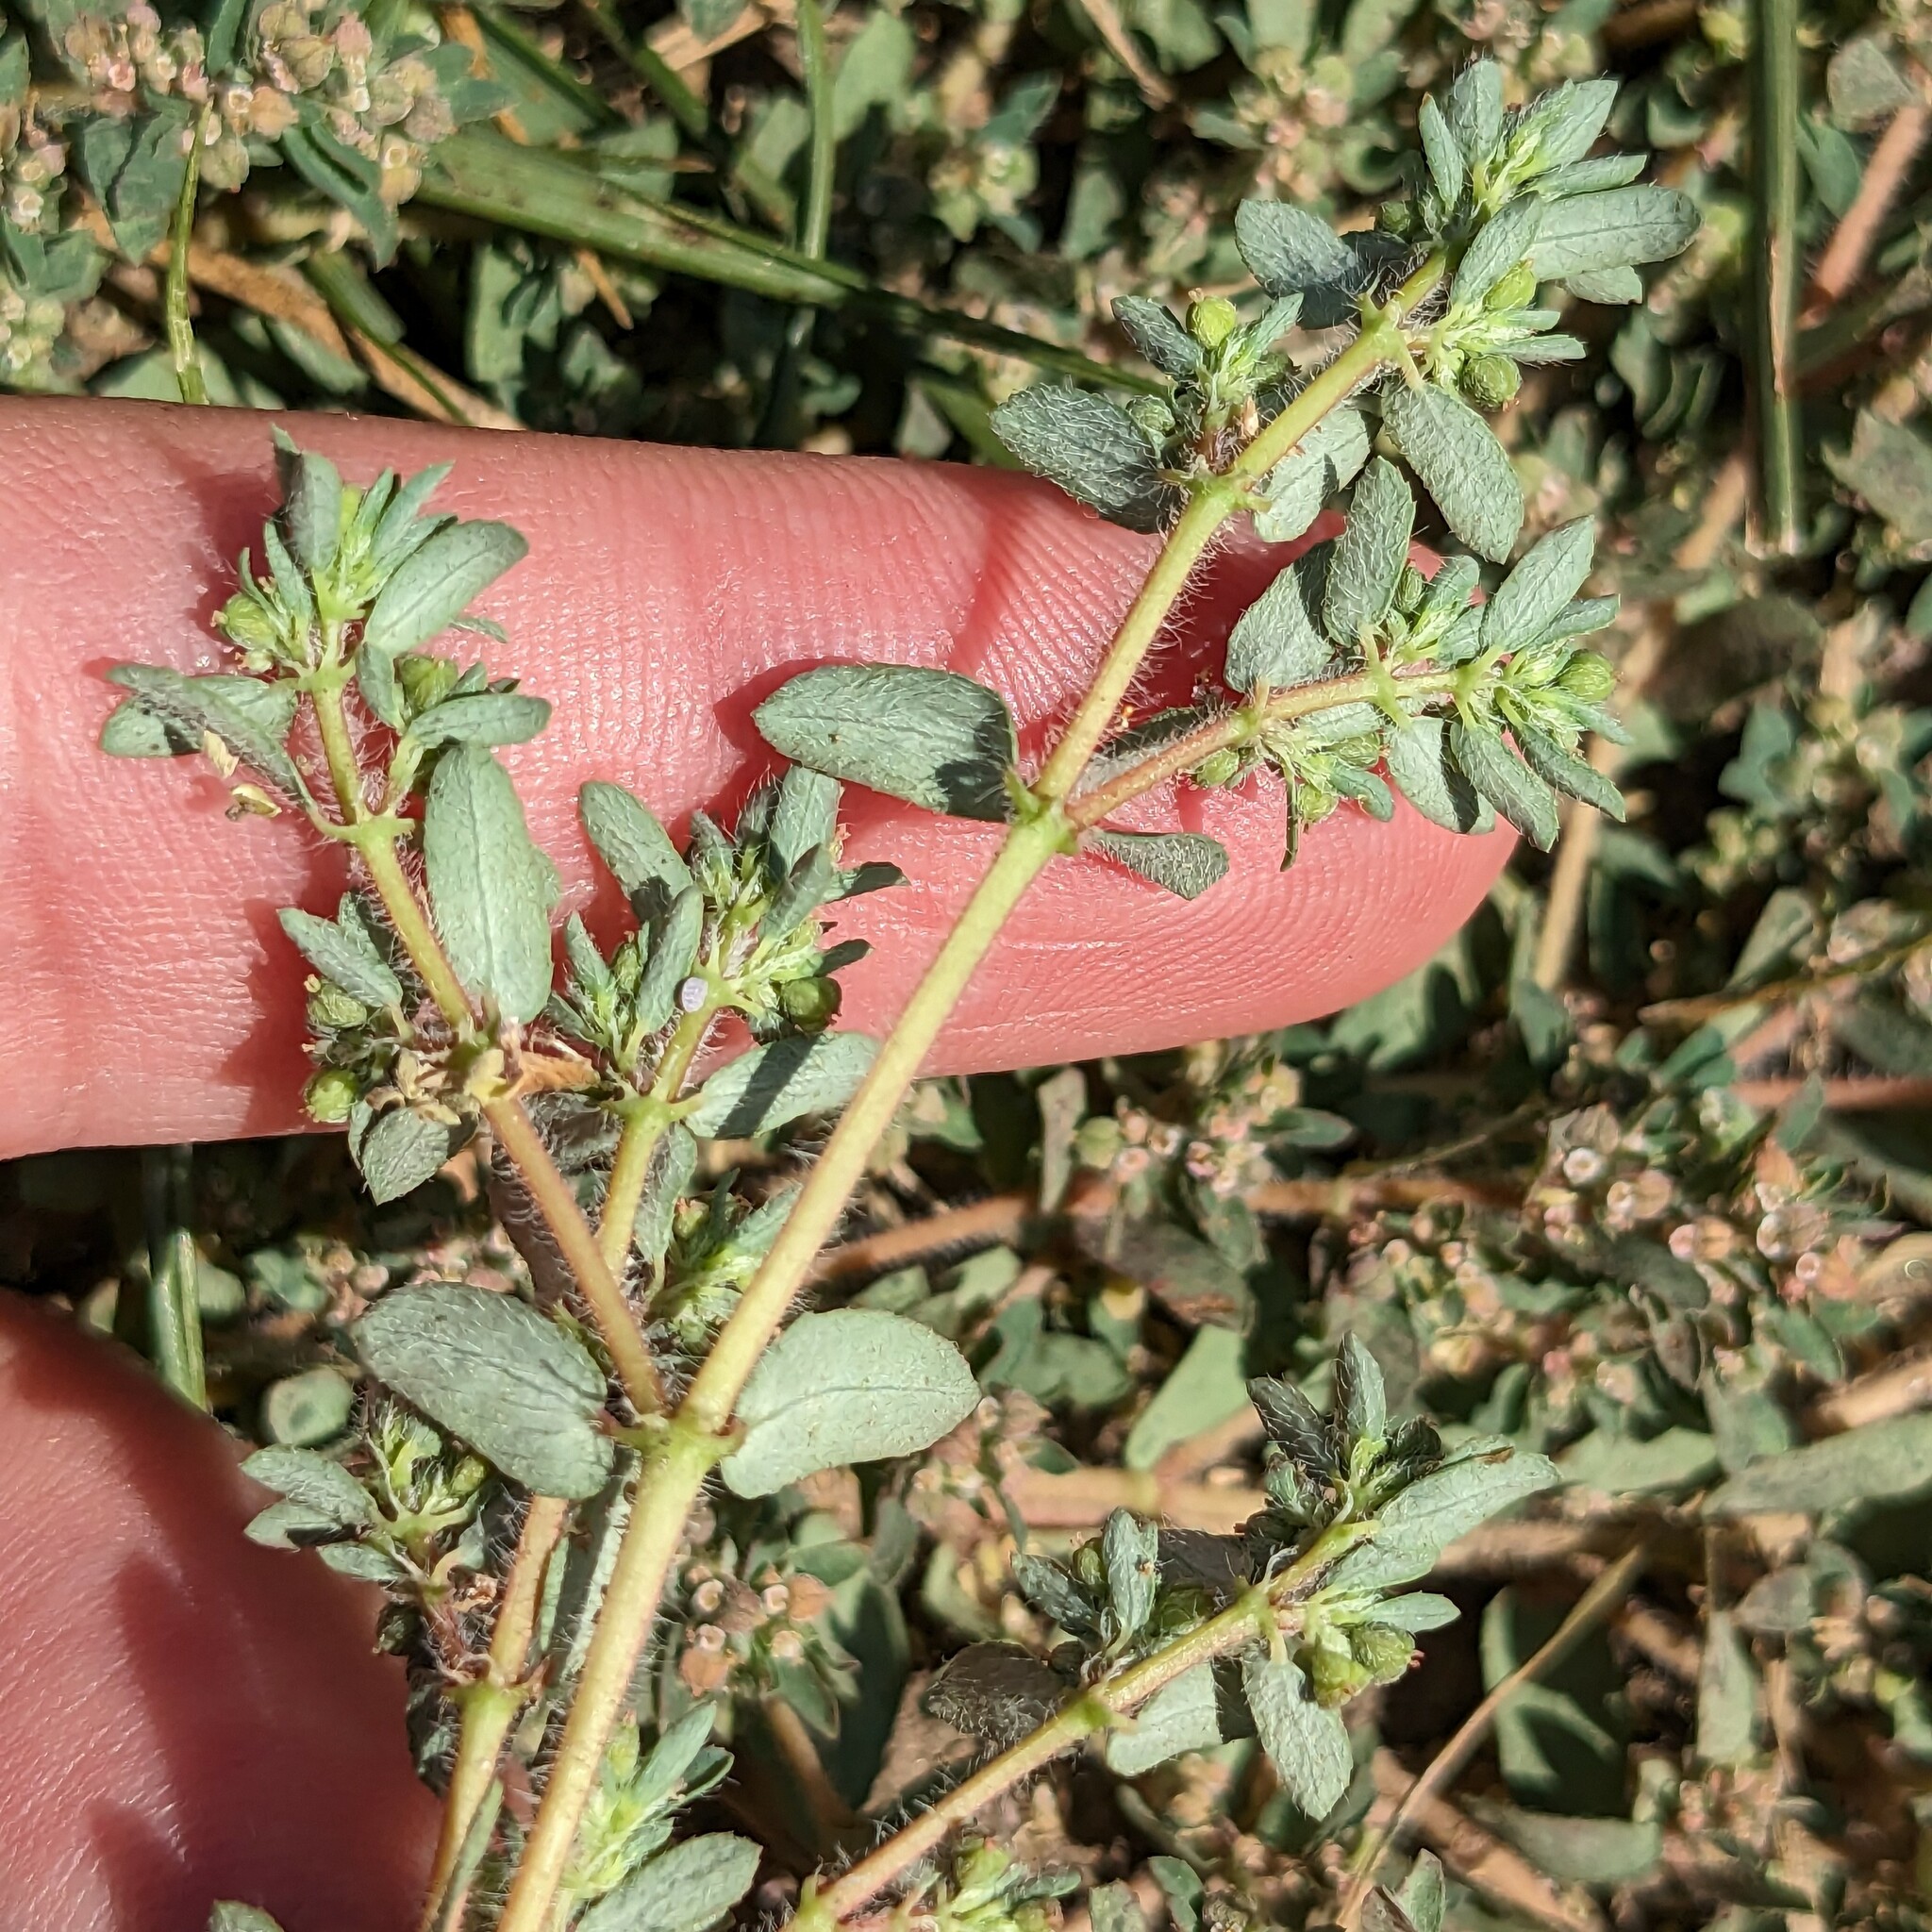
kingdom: Plantae
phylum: Tracheophyta
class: Magnoliopsida
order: Malpighiales
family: Euphorbiaceae
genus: Euphorbia
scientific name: Euphorbia maculata
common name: Spotted spurge
